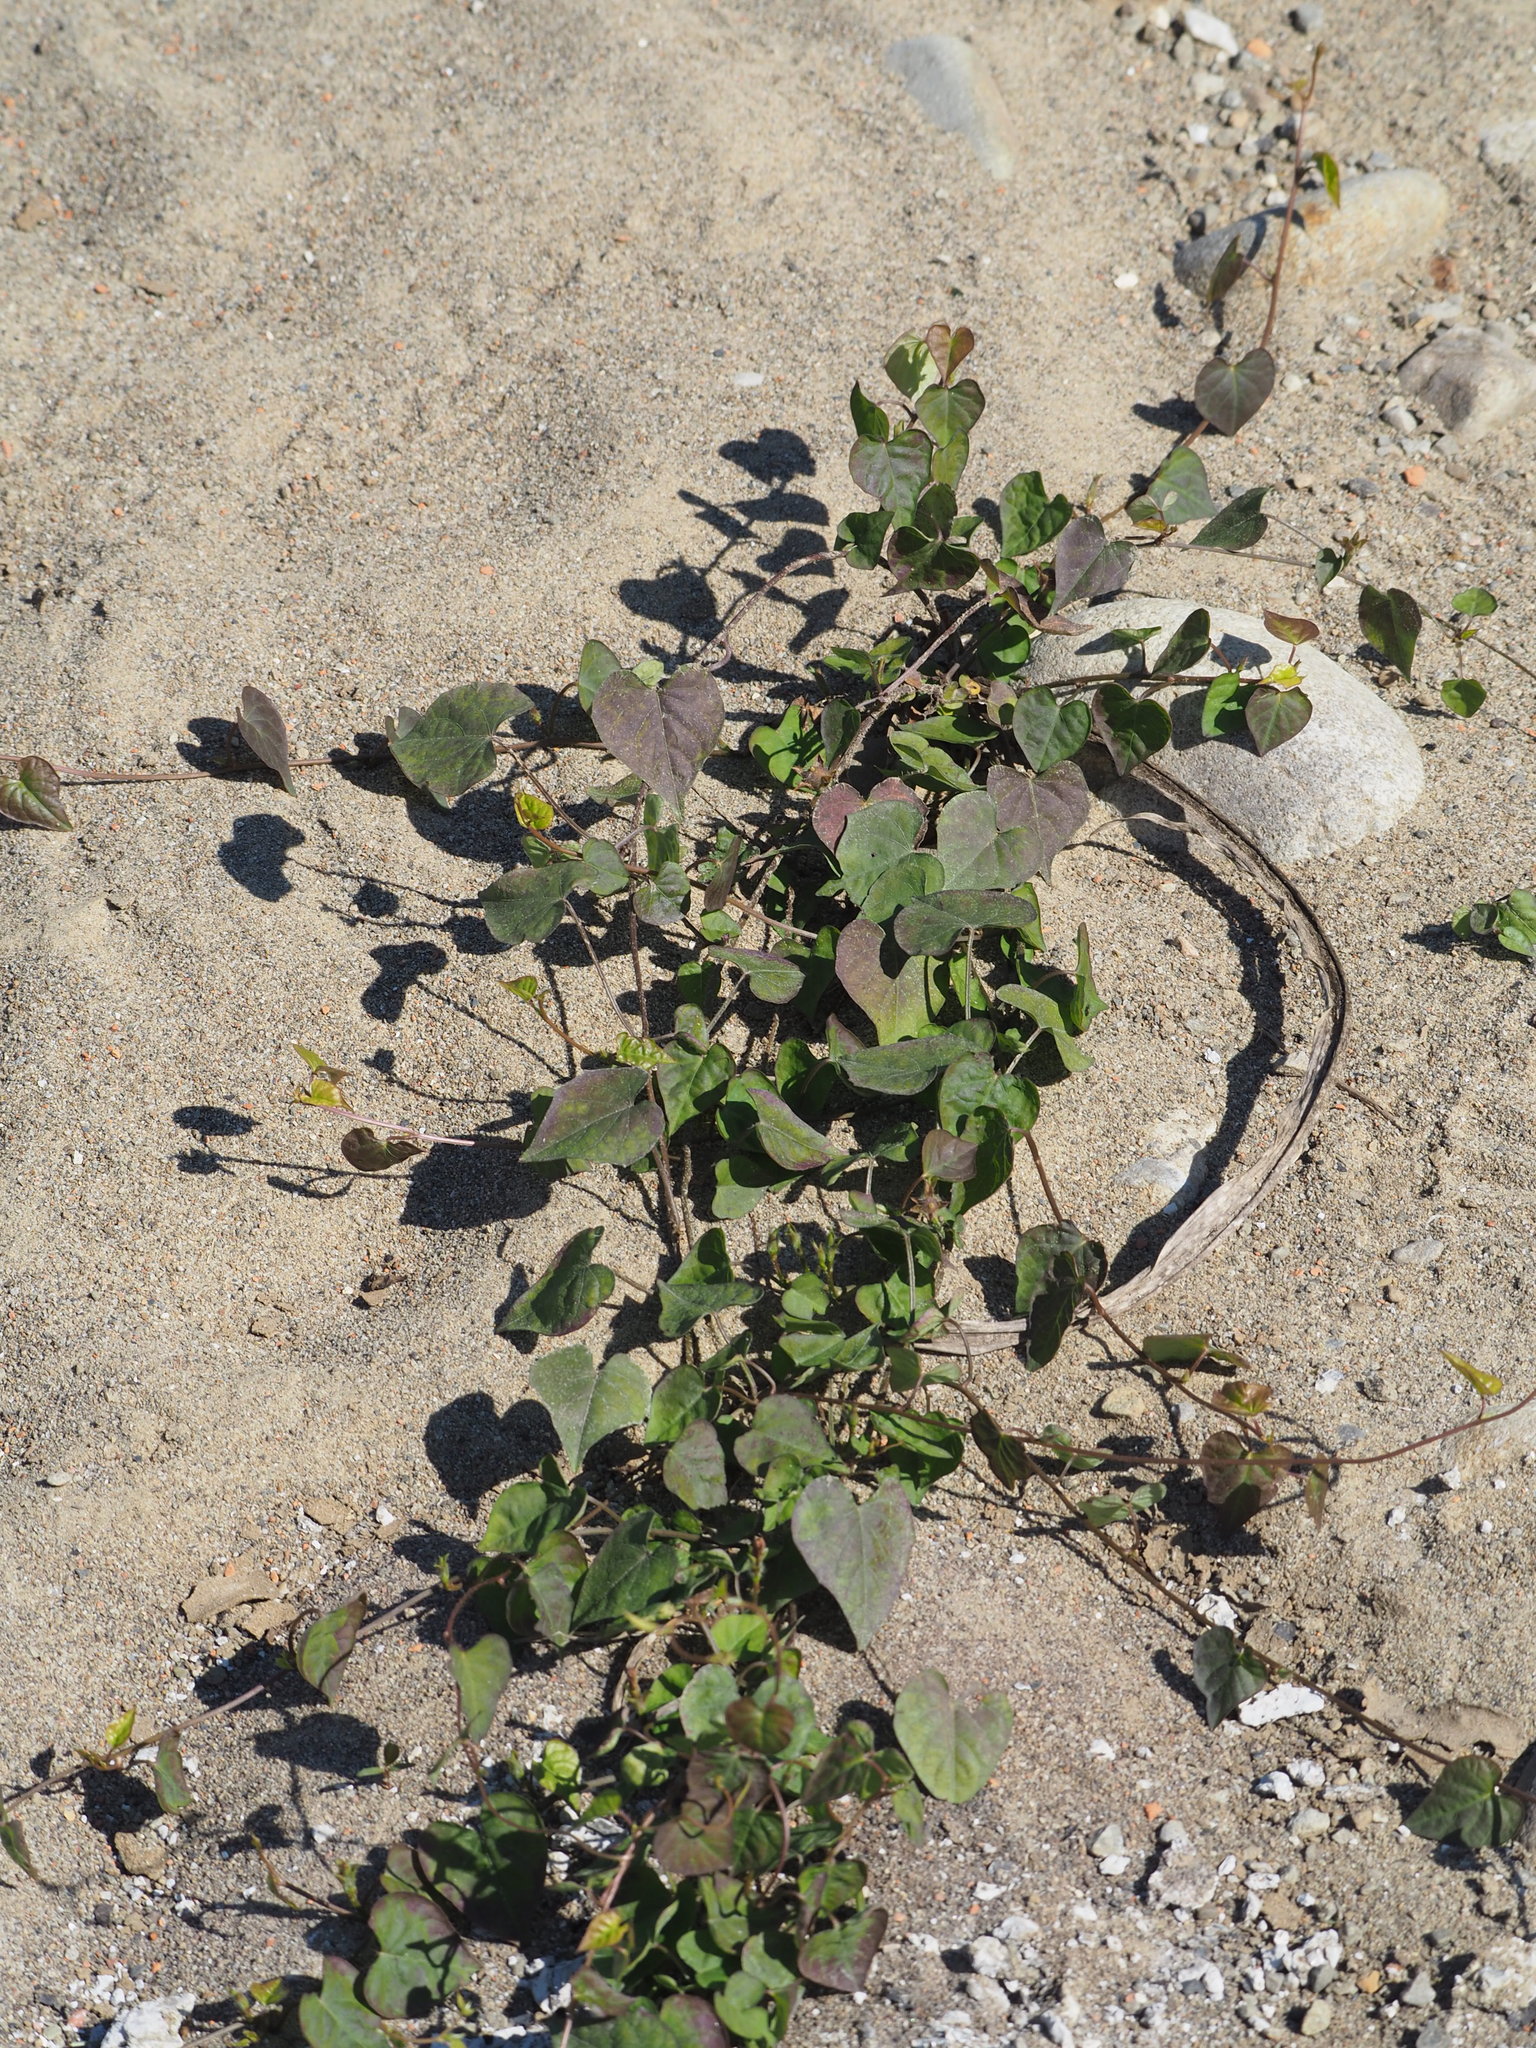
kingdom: Plantae
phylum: Tracheophyta
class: Magnoliopsida
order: Solanales
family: Convolvulaceae
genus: Ipomoea
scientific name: Ipomoea obscura
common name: Obscure morning-glory
